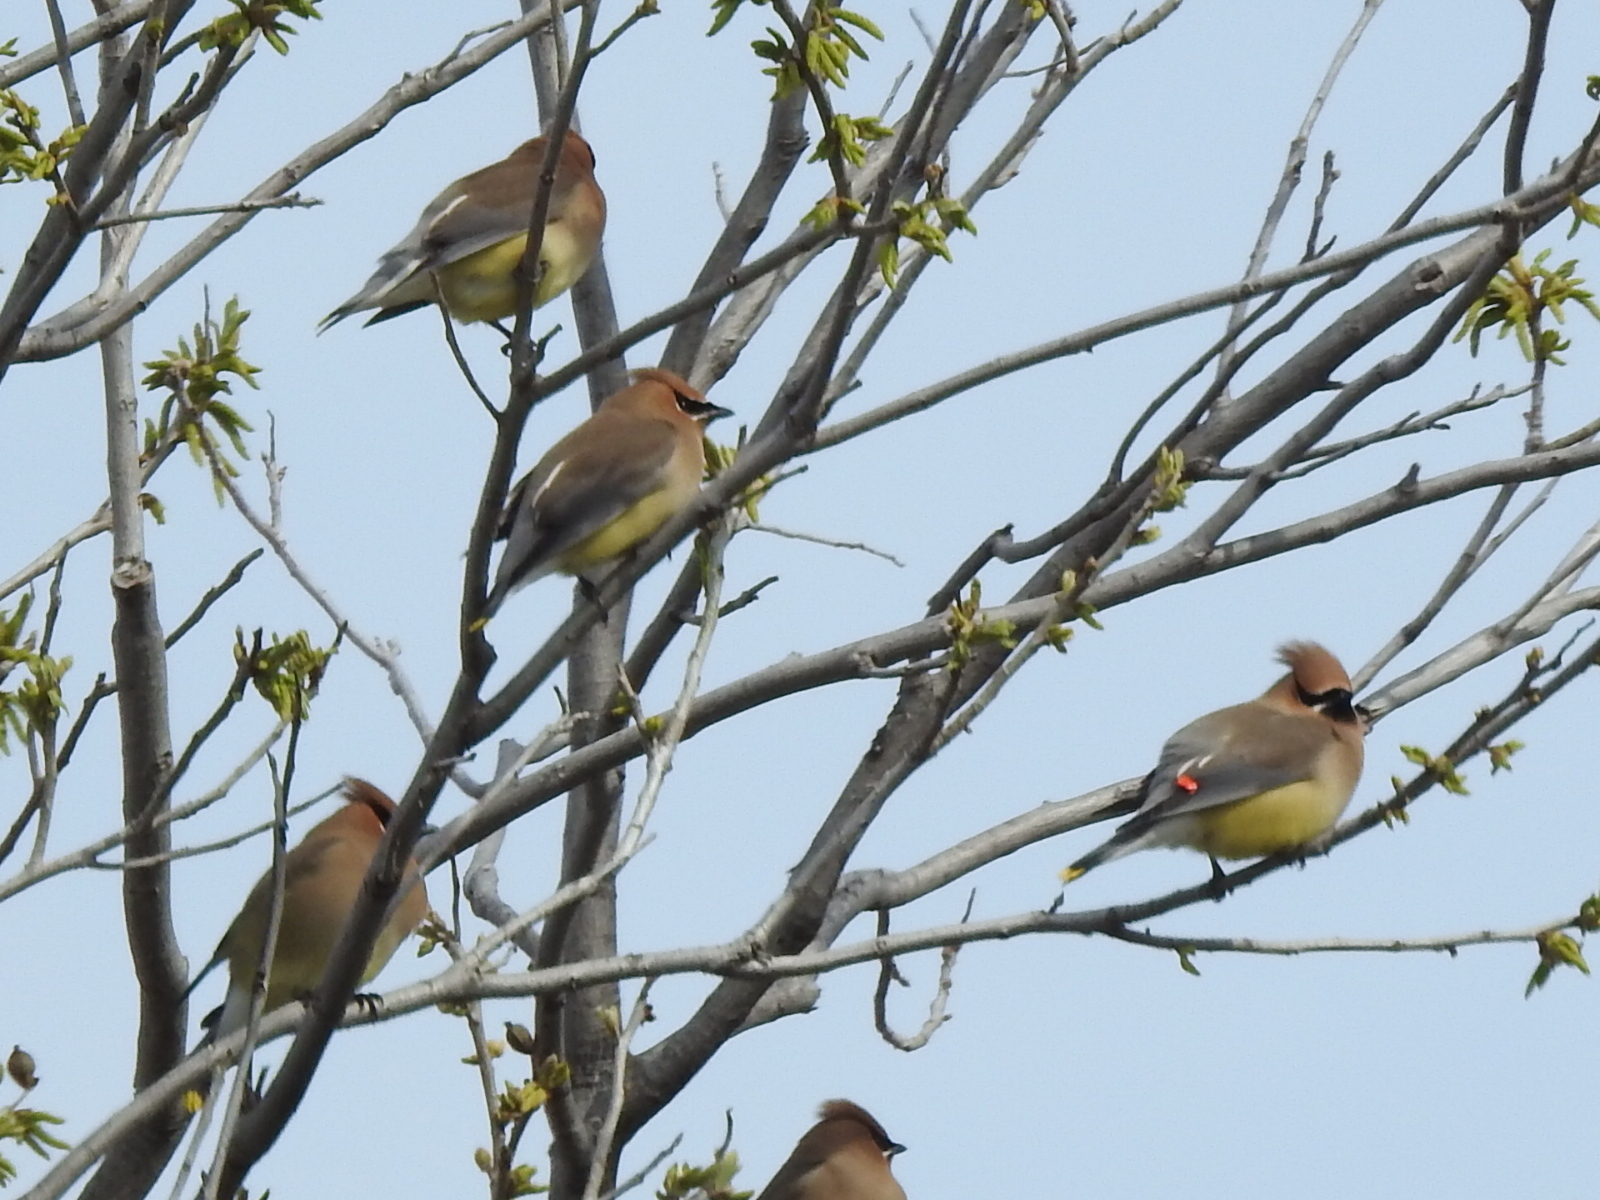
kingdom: Animalia
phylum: Chordata
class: Aves
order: Passeriformes
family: Bombycillidae
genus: Bombycilla
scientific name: Bombycilla cedrorum
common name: Cedar waxwing
